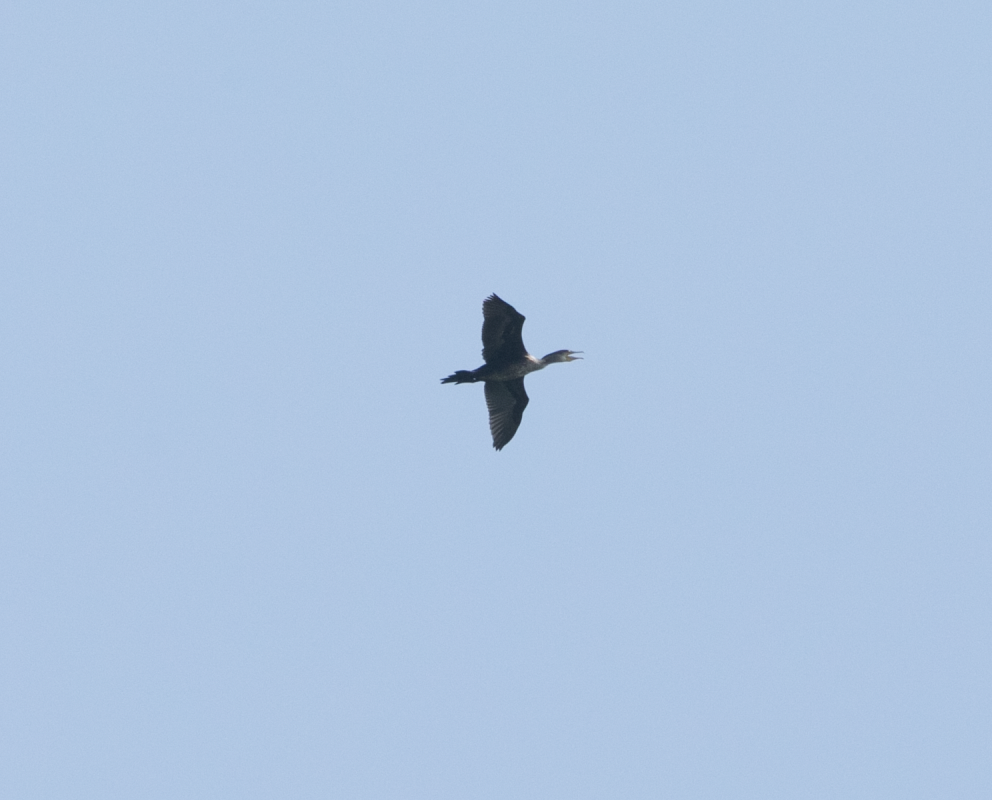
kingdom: Animalia
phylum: Chordata
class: Aves
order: Suliformes
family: Phalacrocoracidae
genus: Phalacrocorax
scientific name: Phalacrocorax carbo
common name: Great cormorant
